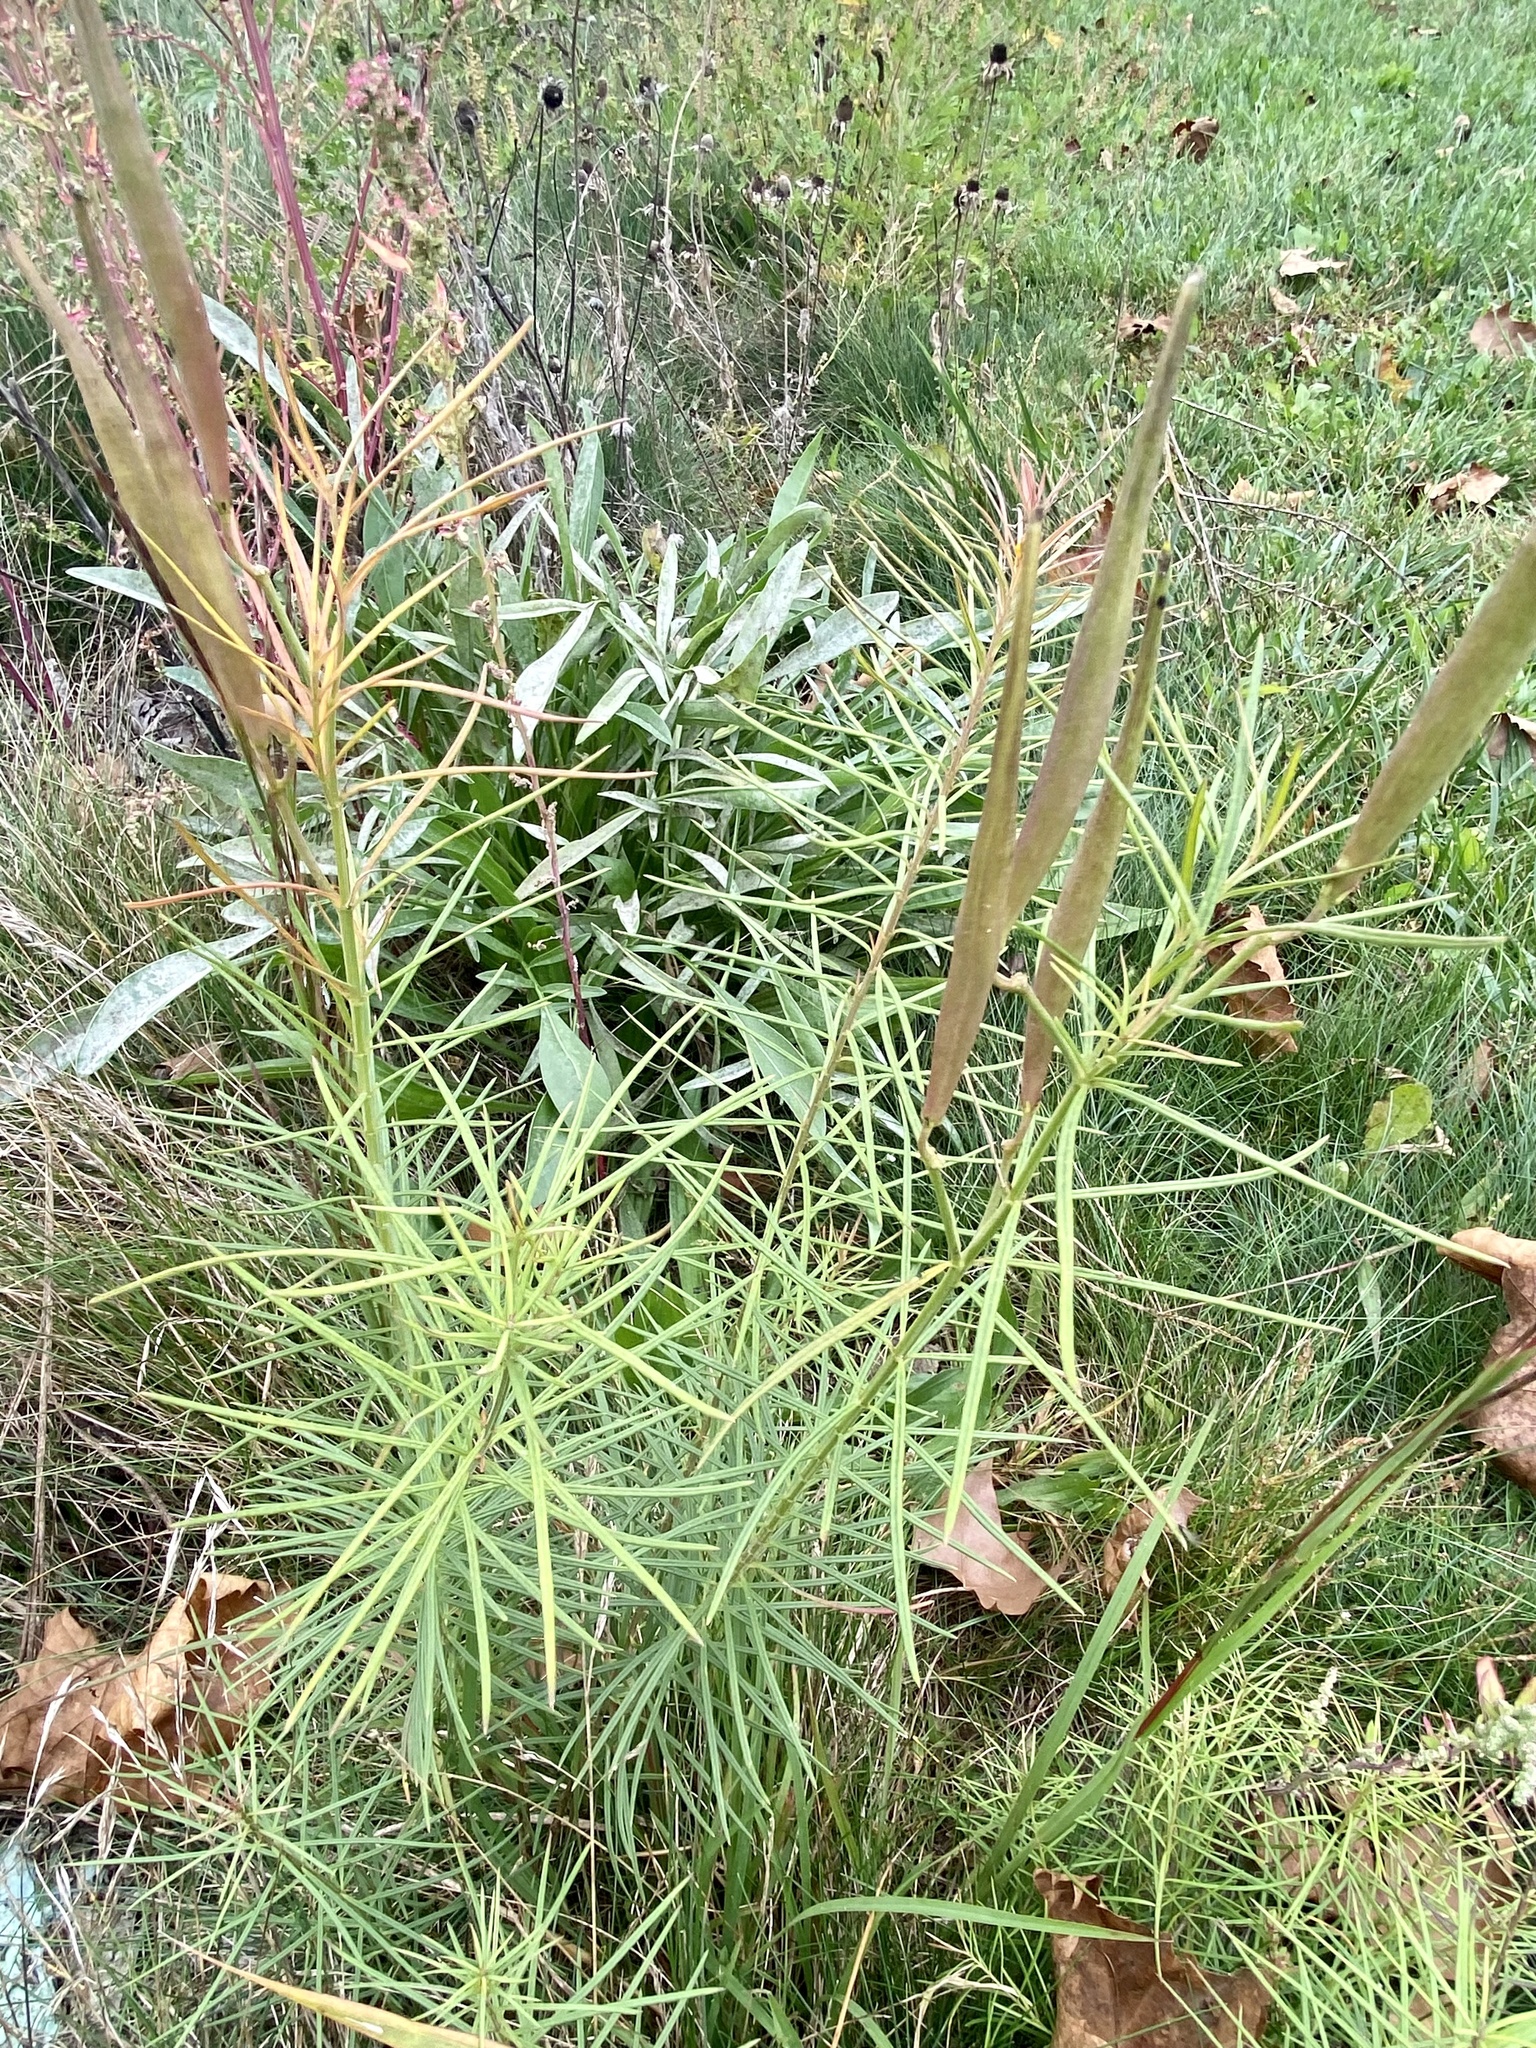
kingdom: Plantae
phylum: Tracheophyta
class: Magnoliopsida
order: Gentianales
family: Apocynaceae
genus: Asclepias
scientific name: Asclepias verticillata
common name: Eastern whorled milkweed
